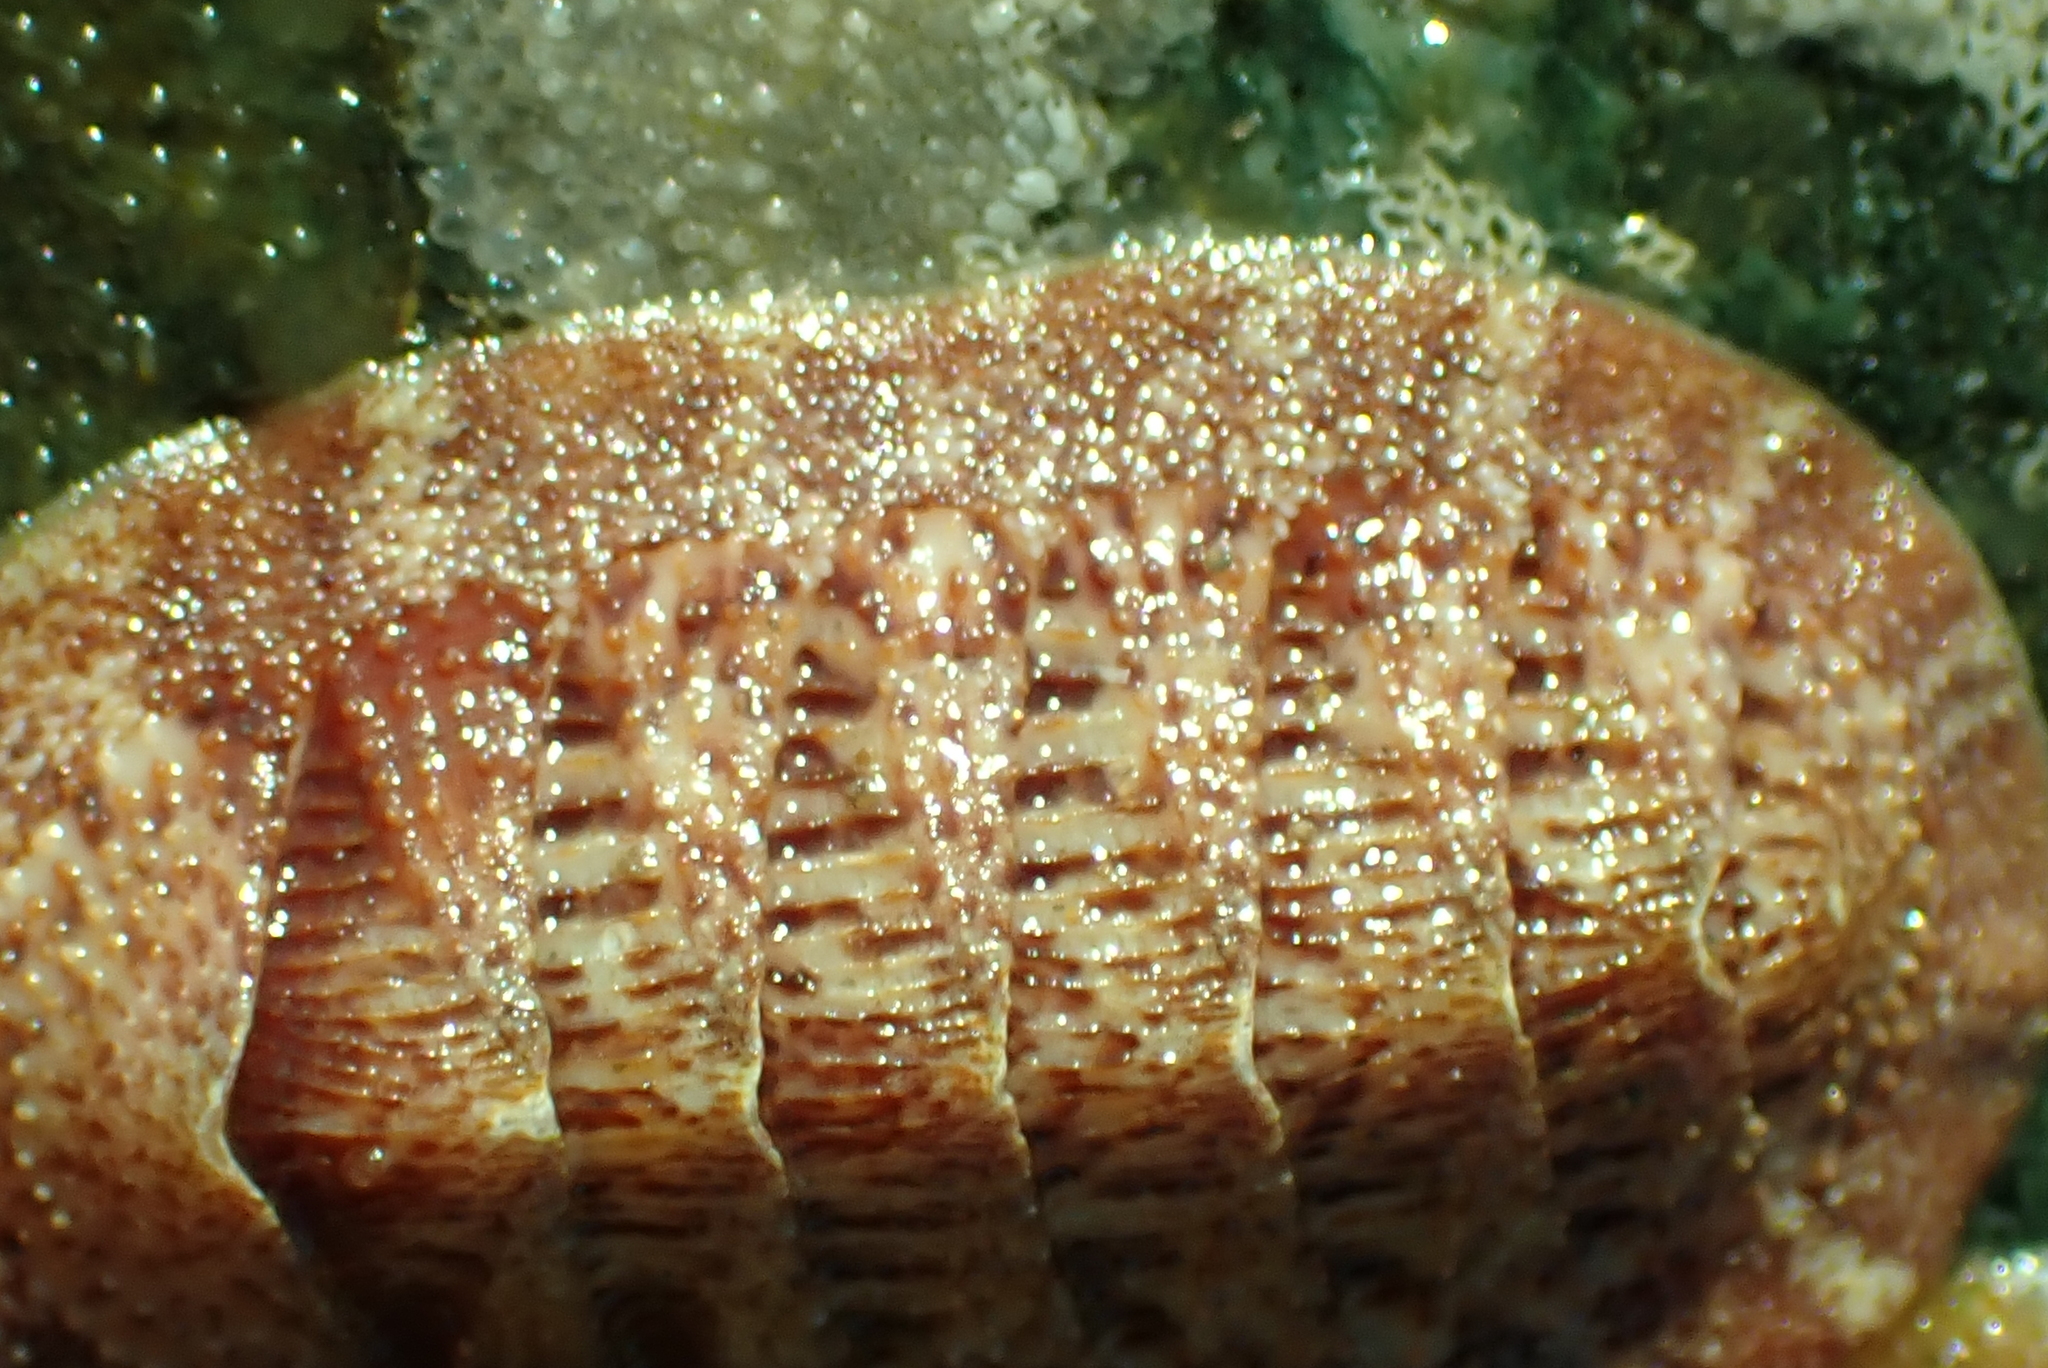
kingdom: Animalia
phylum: Mollusca
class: Polyplacophora
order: Chitonida
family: Ischnochitonidae
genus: Lepidozona
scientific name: Lepidozona mertensii
